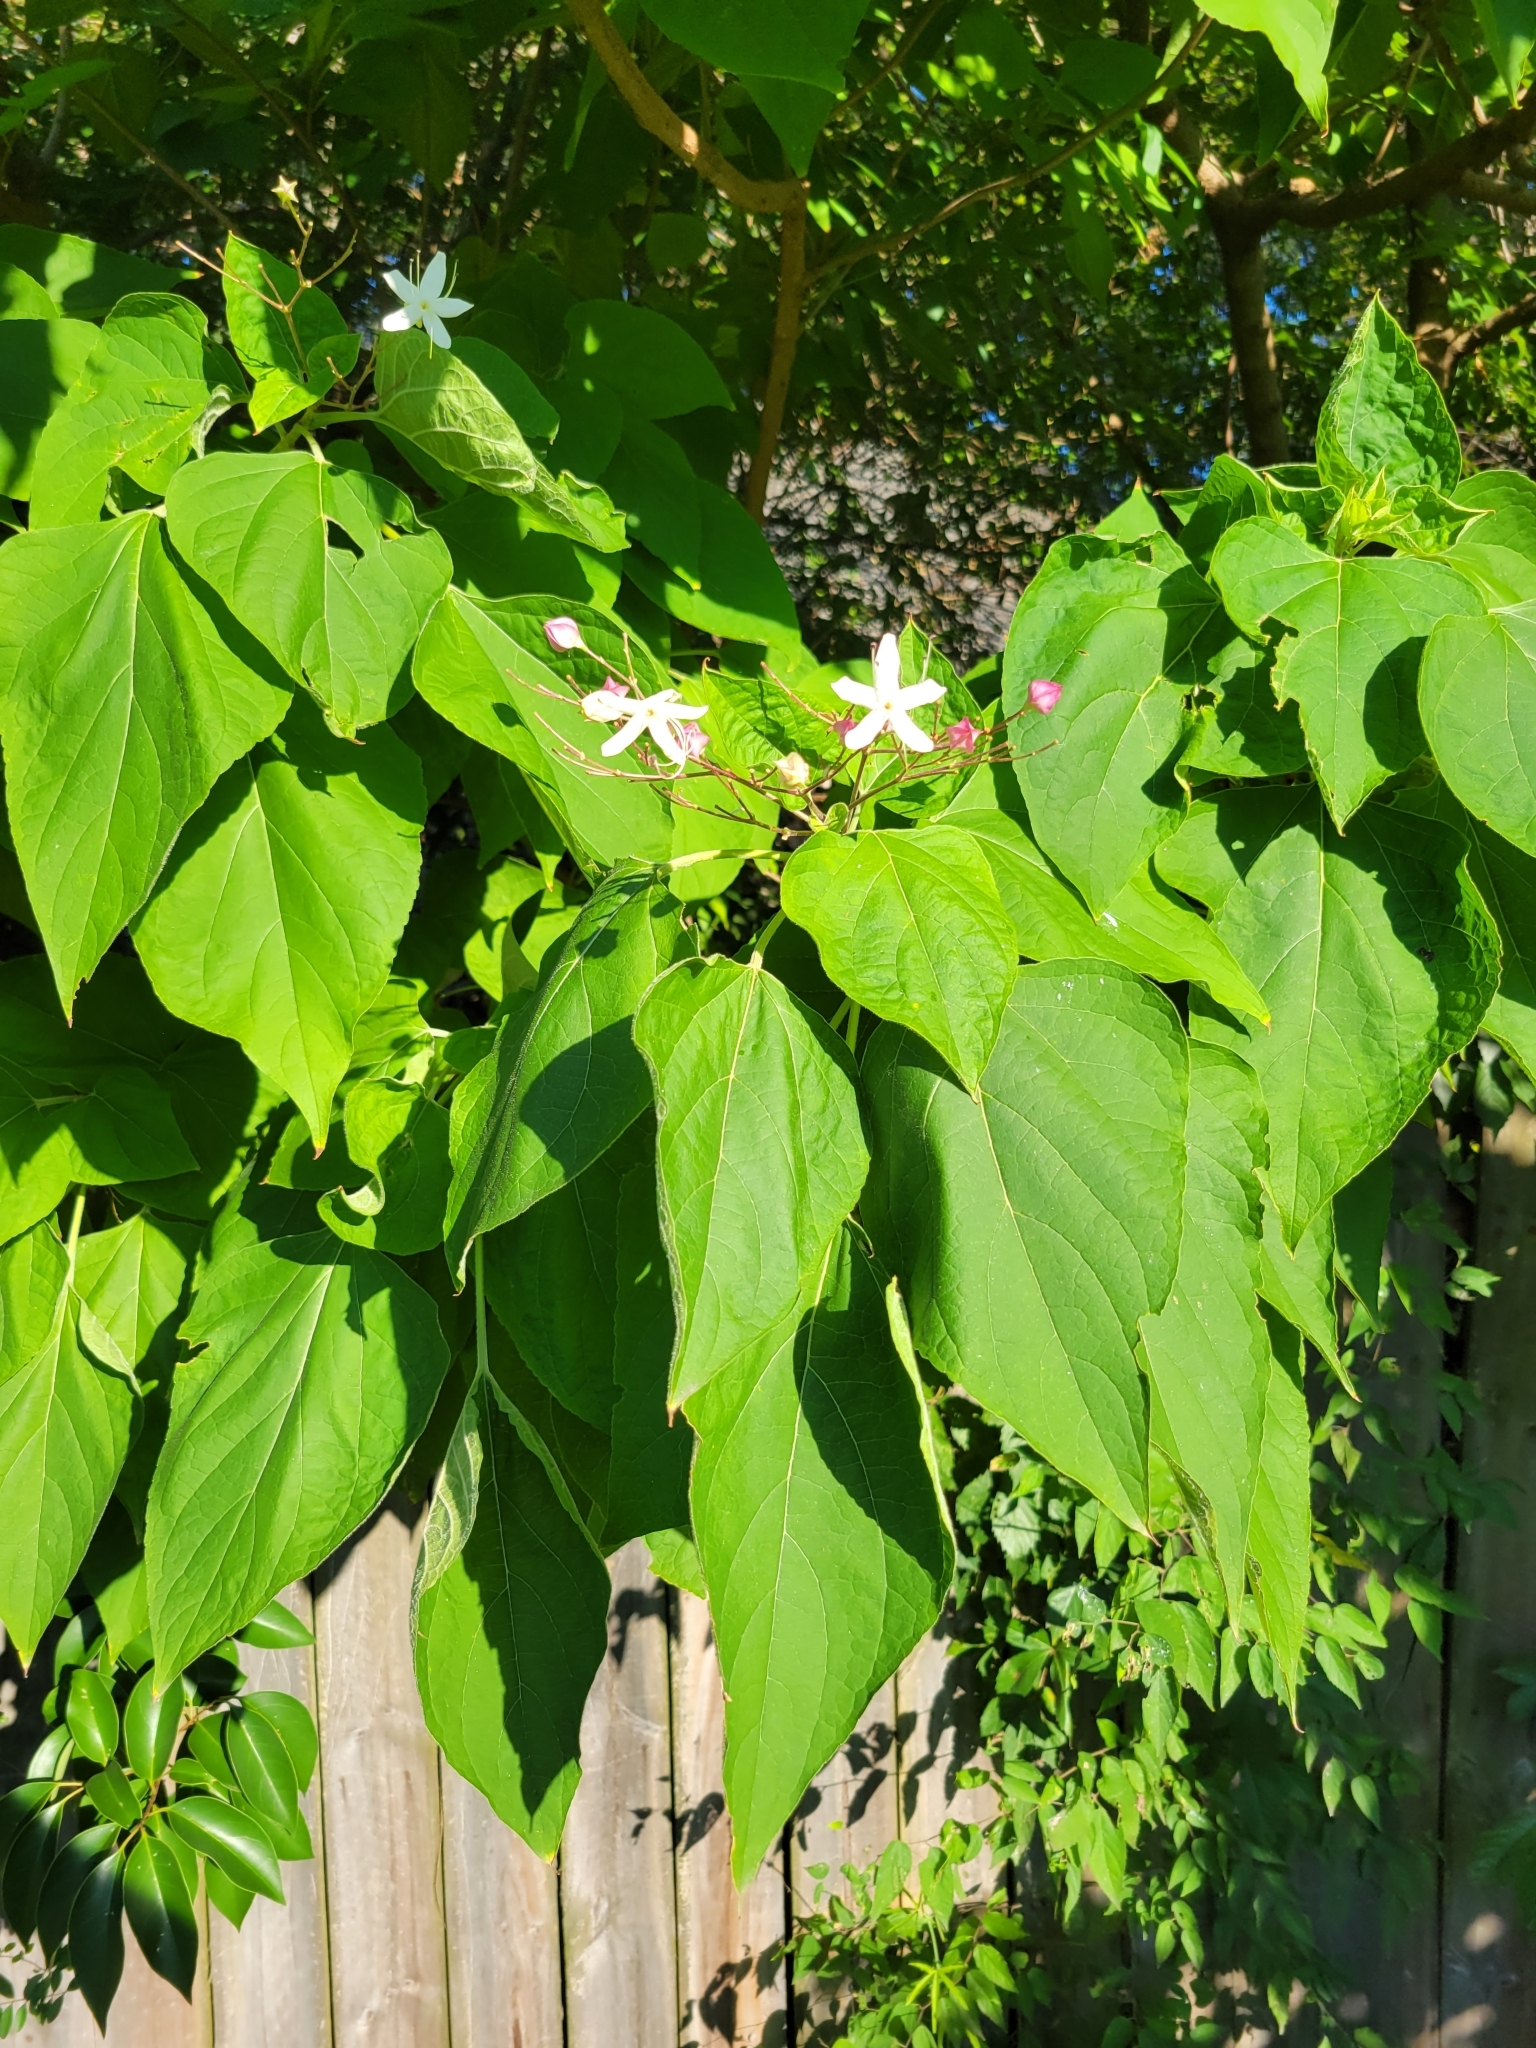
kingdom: Plantae
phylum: Tracheophyta
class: Magnoliopsida
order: Lamiales
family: Lamiaceae
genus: Clerodendrum
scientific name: Clerodendrum trichotomum
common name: Harlequin glorybower
